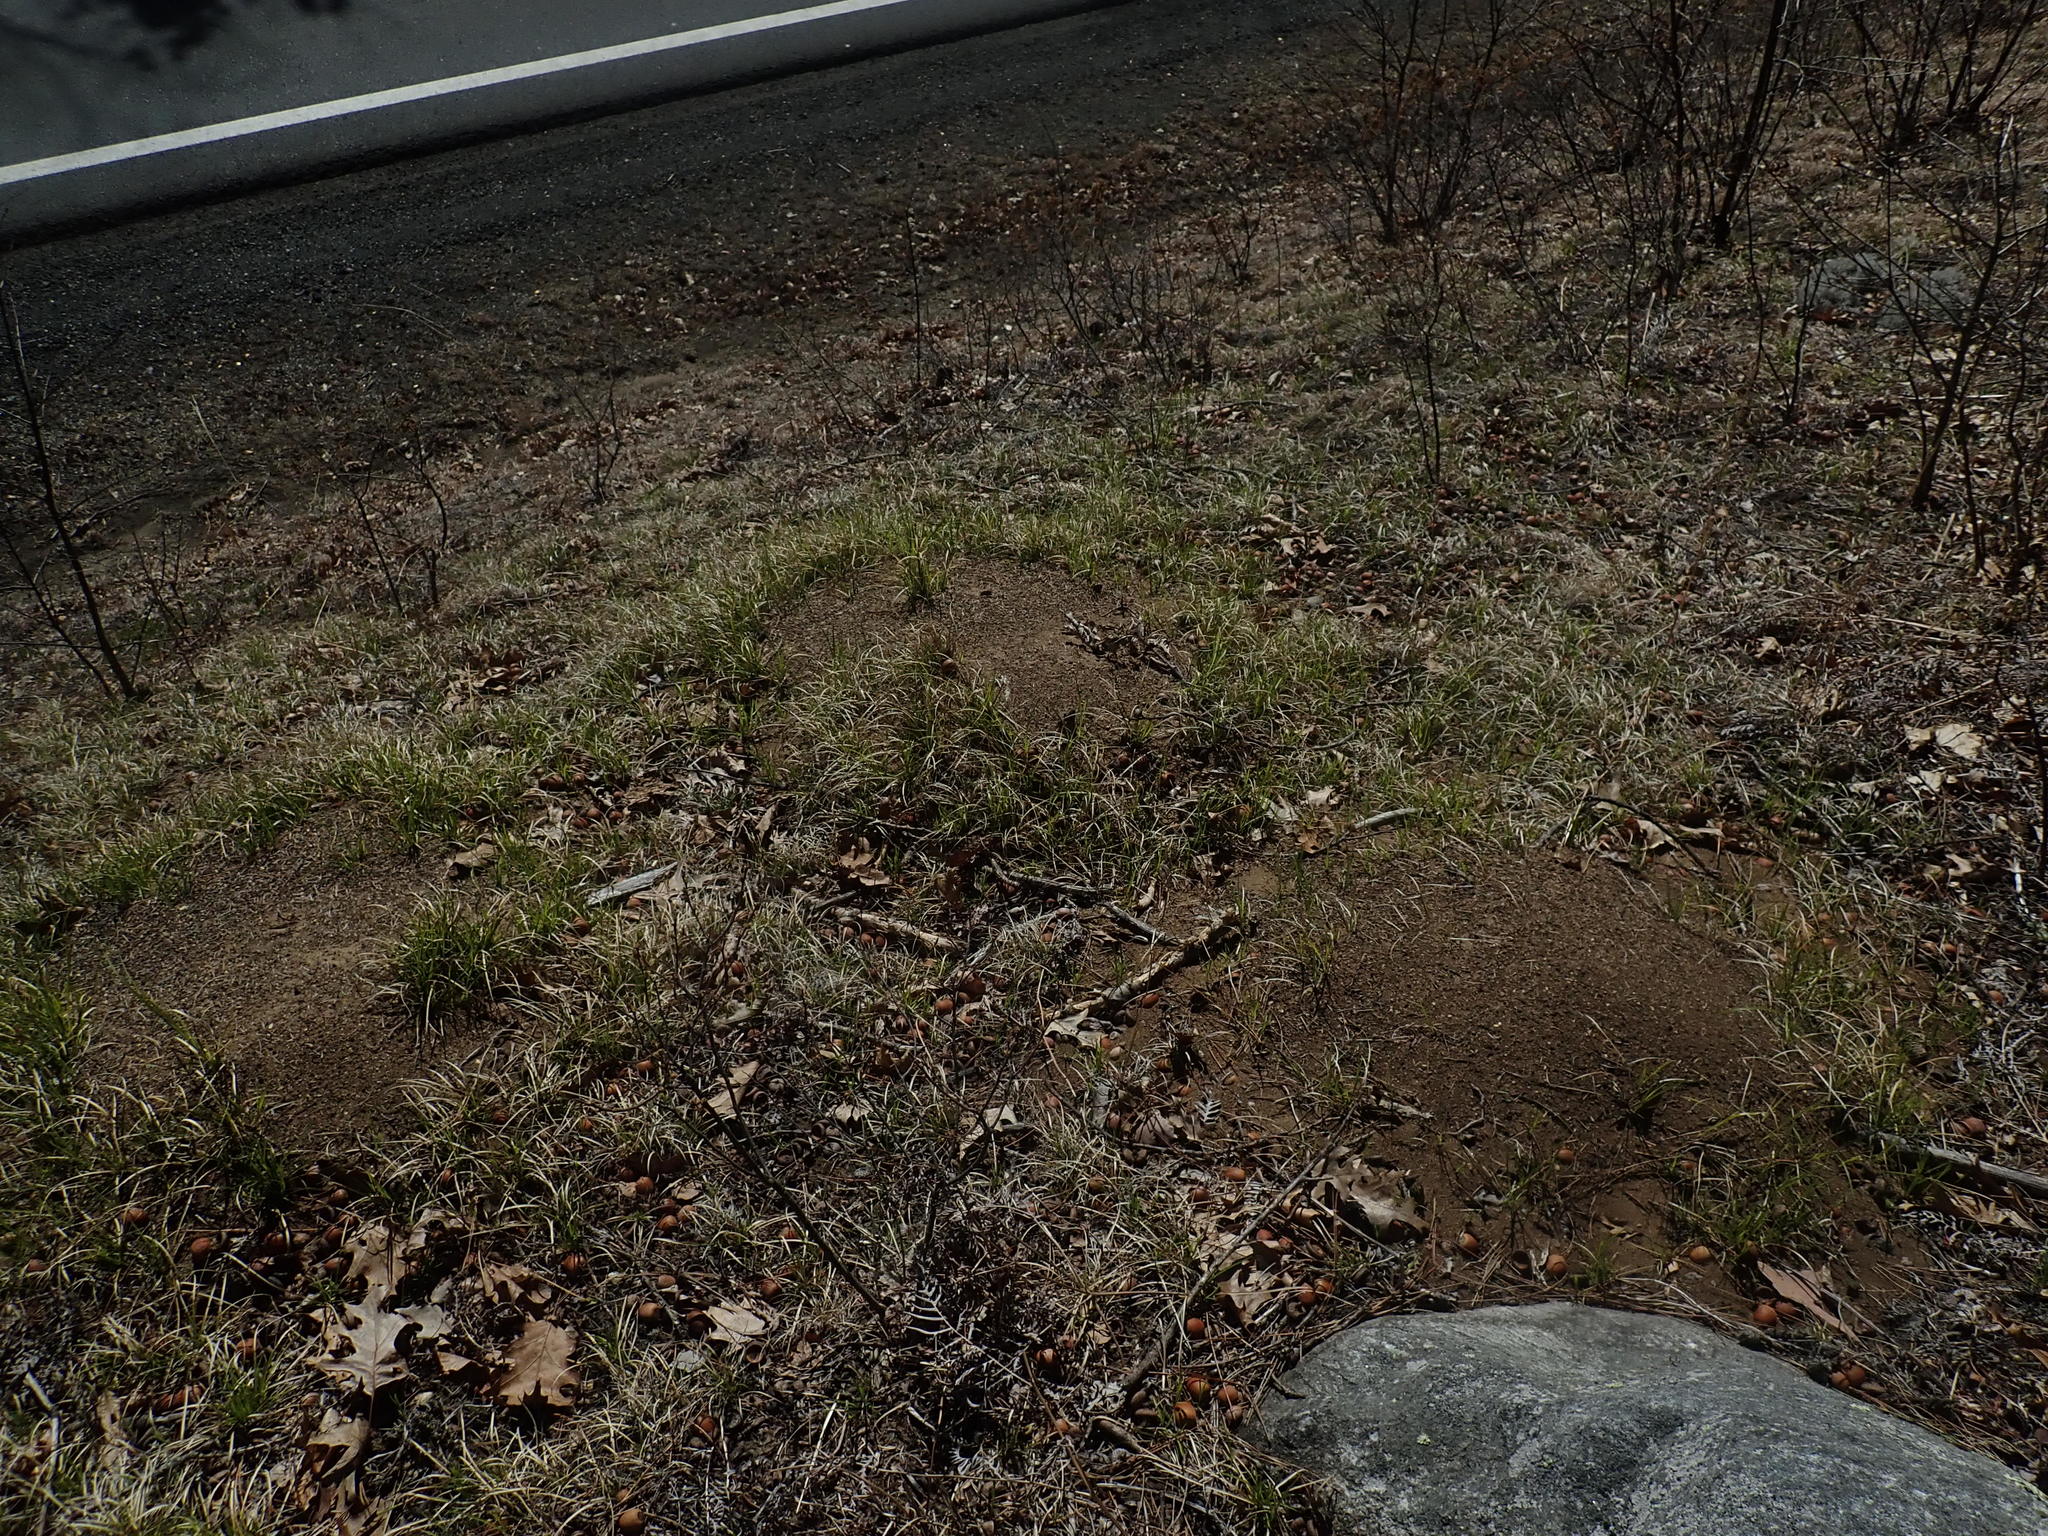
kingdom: Animalia
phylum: Arthropoda
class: Insecta
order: Hymenoptera
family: Formicidae
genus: Formica
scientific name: Formica exsectoides
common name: Allegheny mound ant
